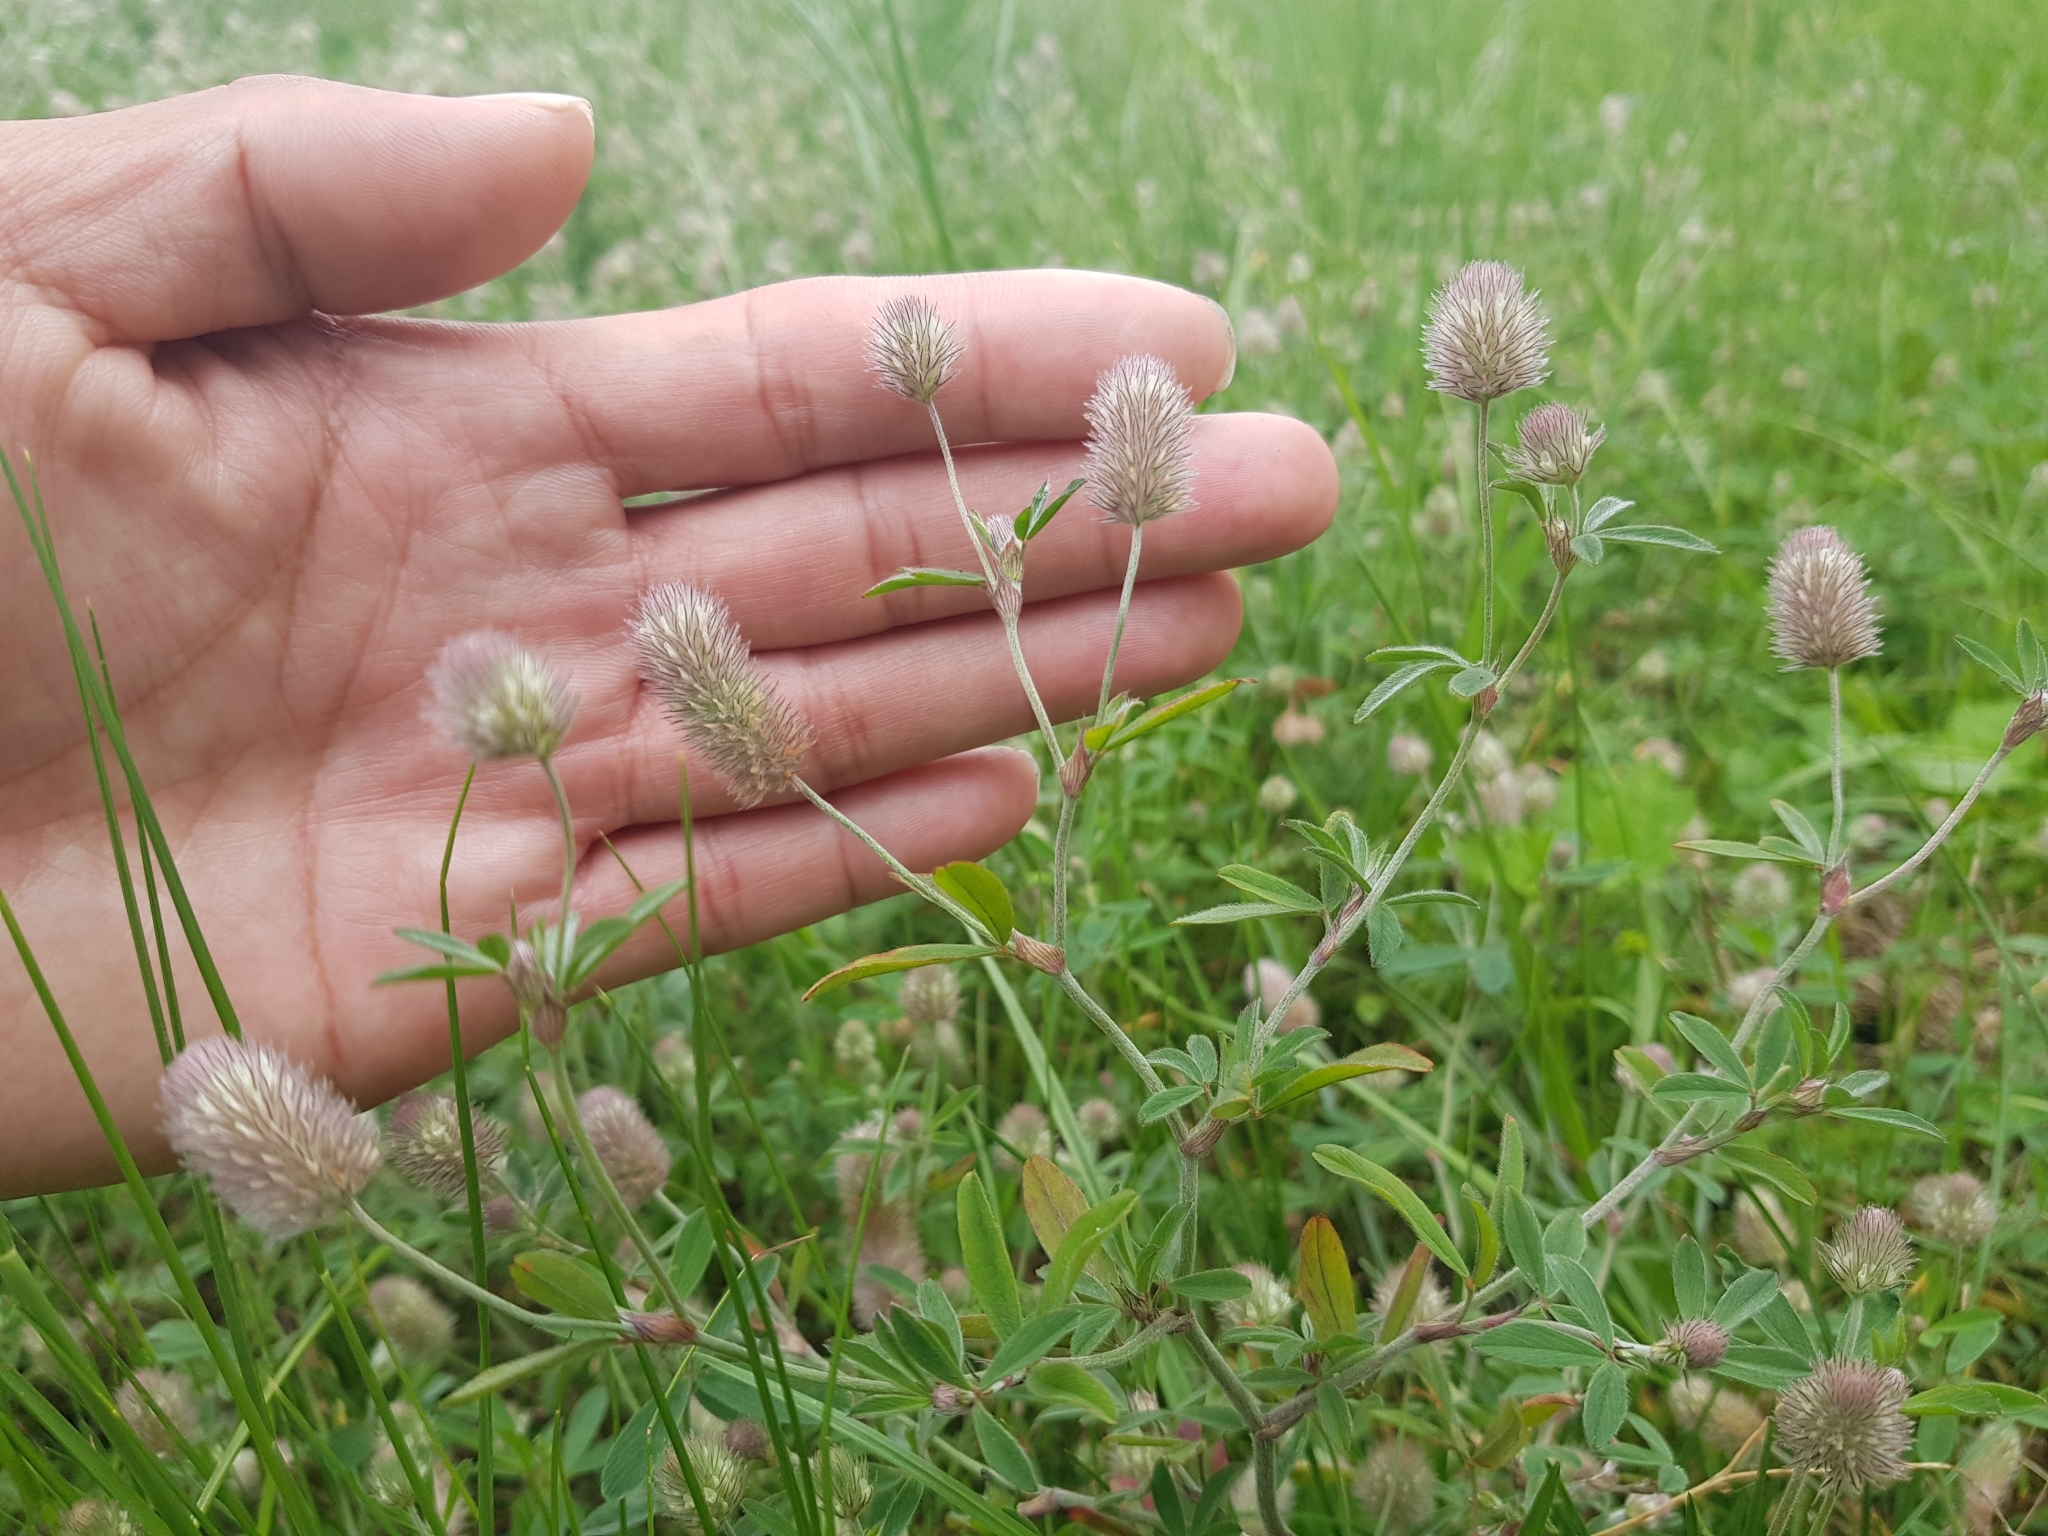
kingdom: Plantae
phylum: Tracheophyta
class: Magnoliopsida
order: Fabales
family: Fabaceae
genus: Trifolium
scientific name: Trifolium arvense
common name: Hare's-foot clover
